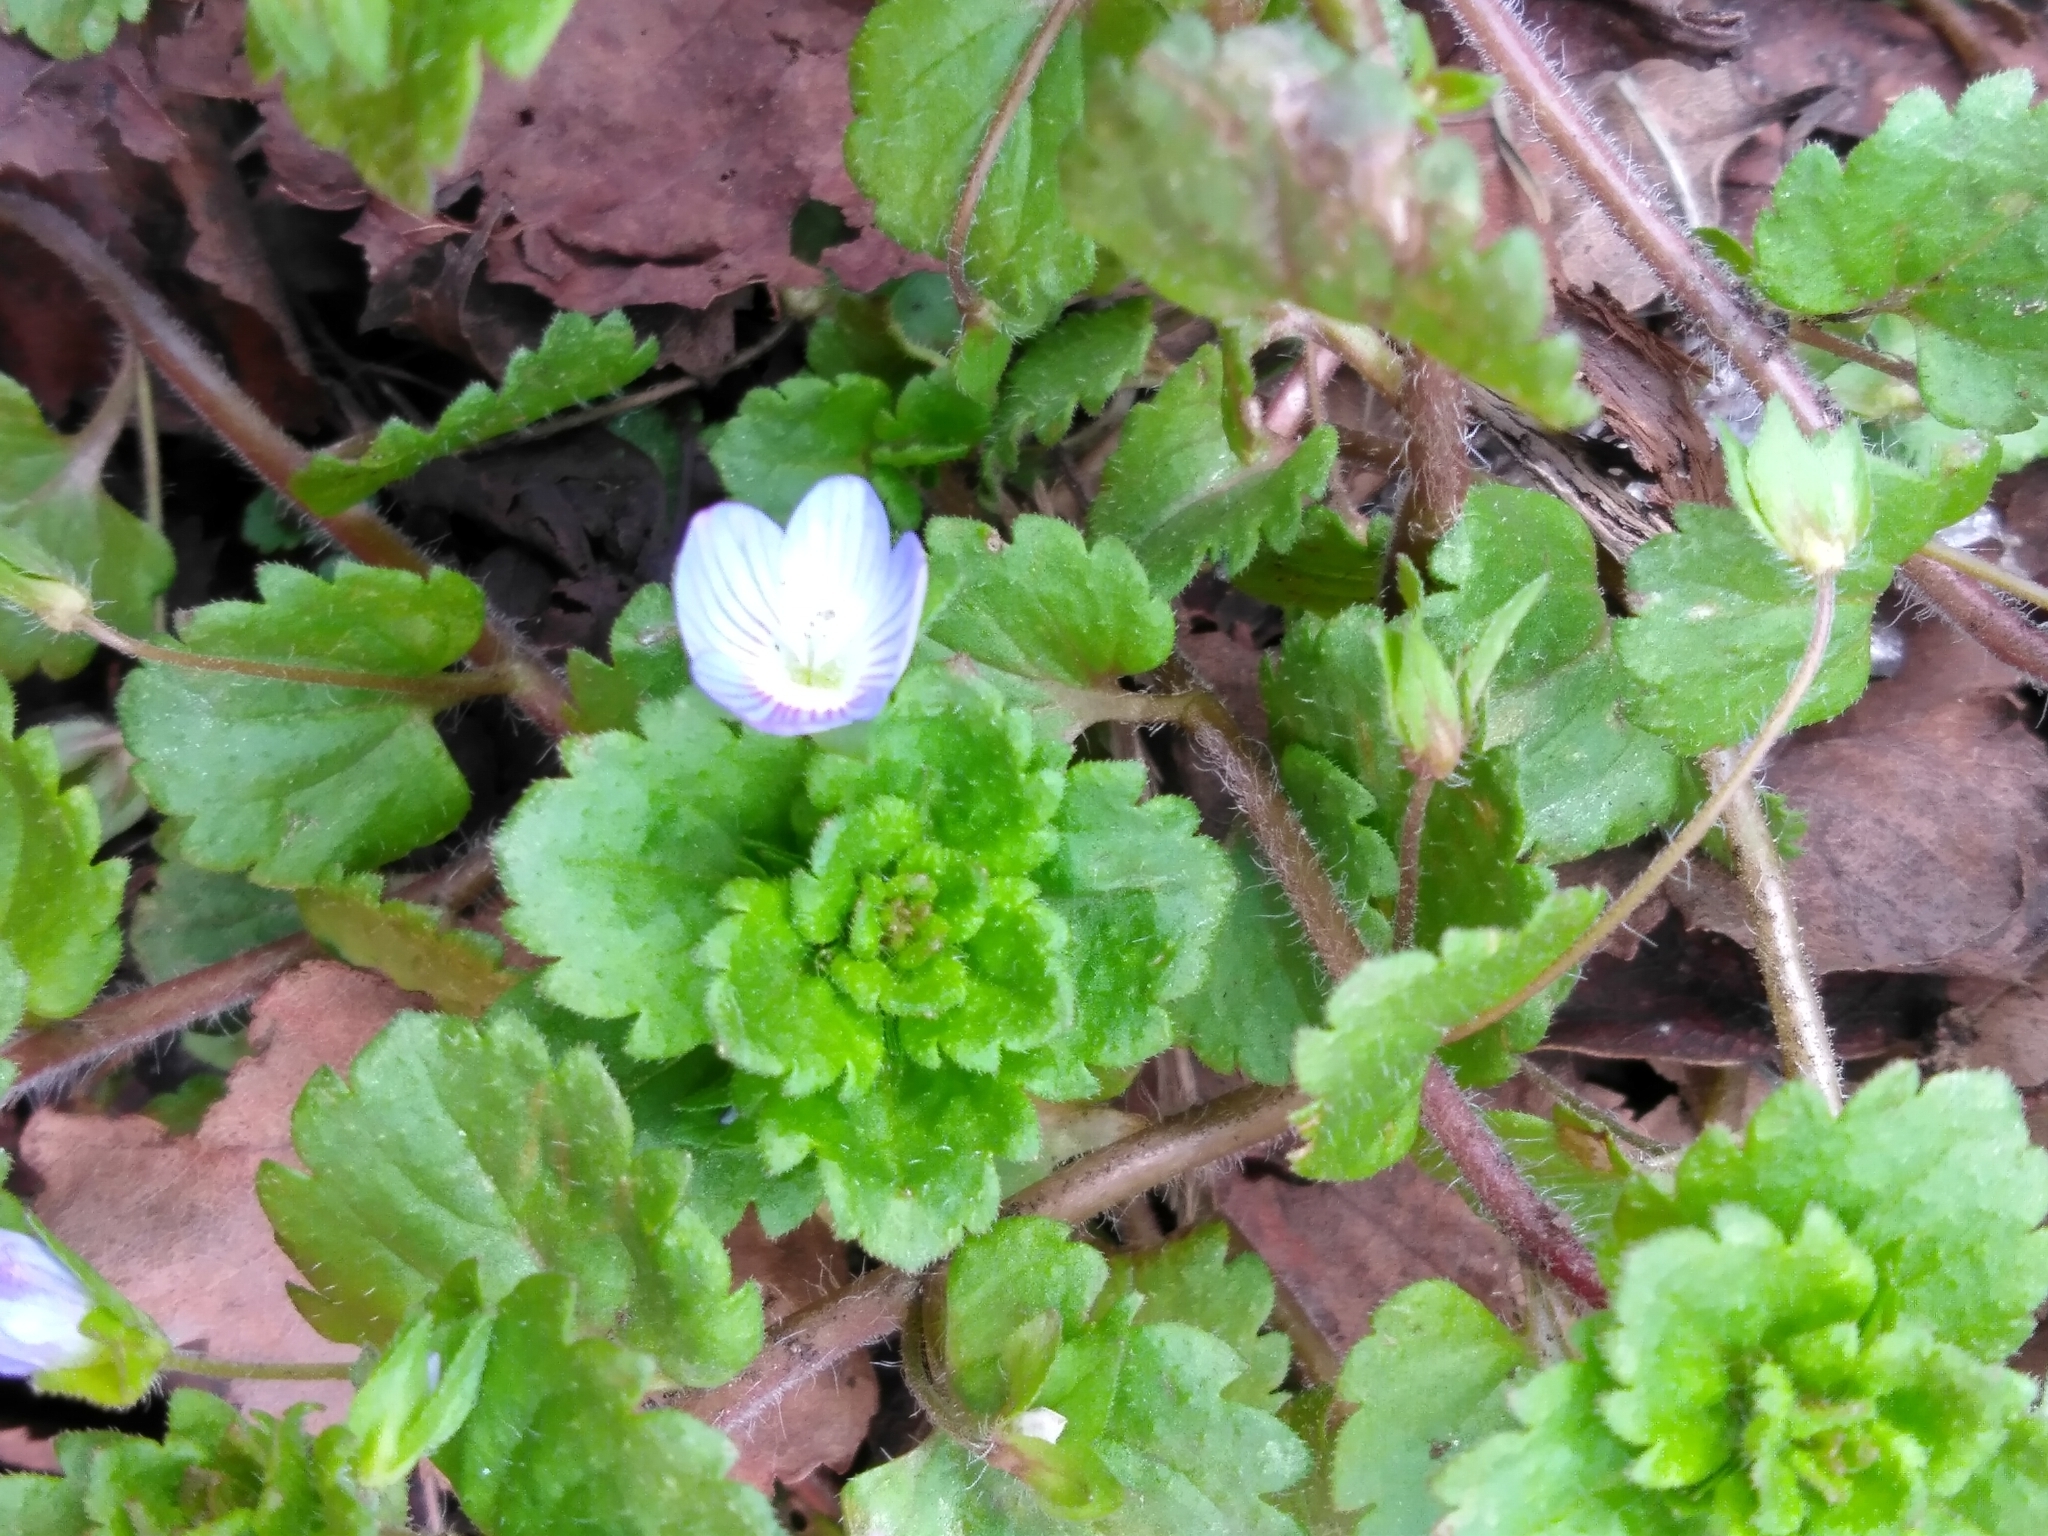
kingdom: Plantae
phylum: Tracheophyta
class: Magnoliopsida
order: Lamiales
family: Plantaginaceae
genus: Veronica
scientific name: Veronica persica
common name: Common field-speedwell
